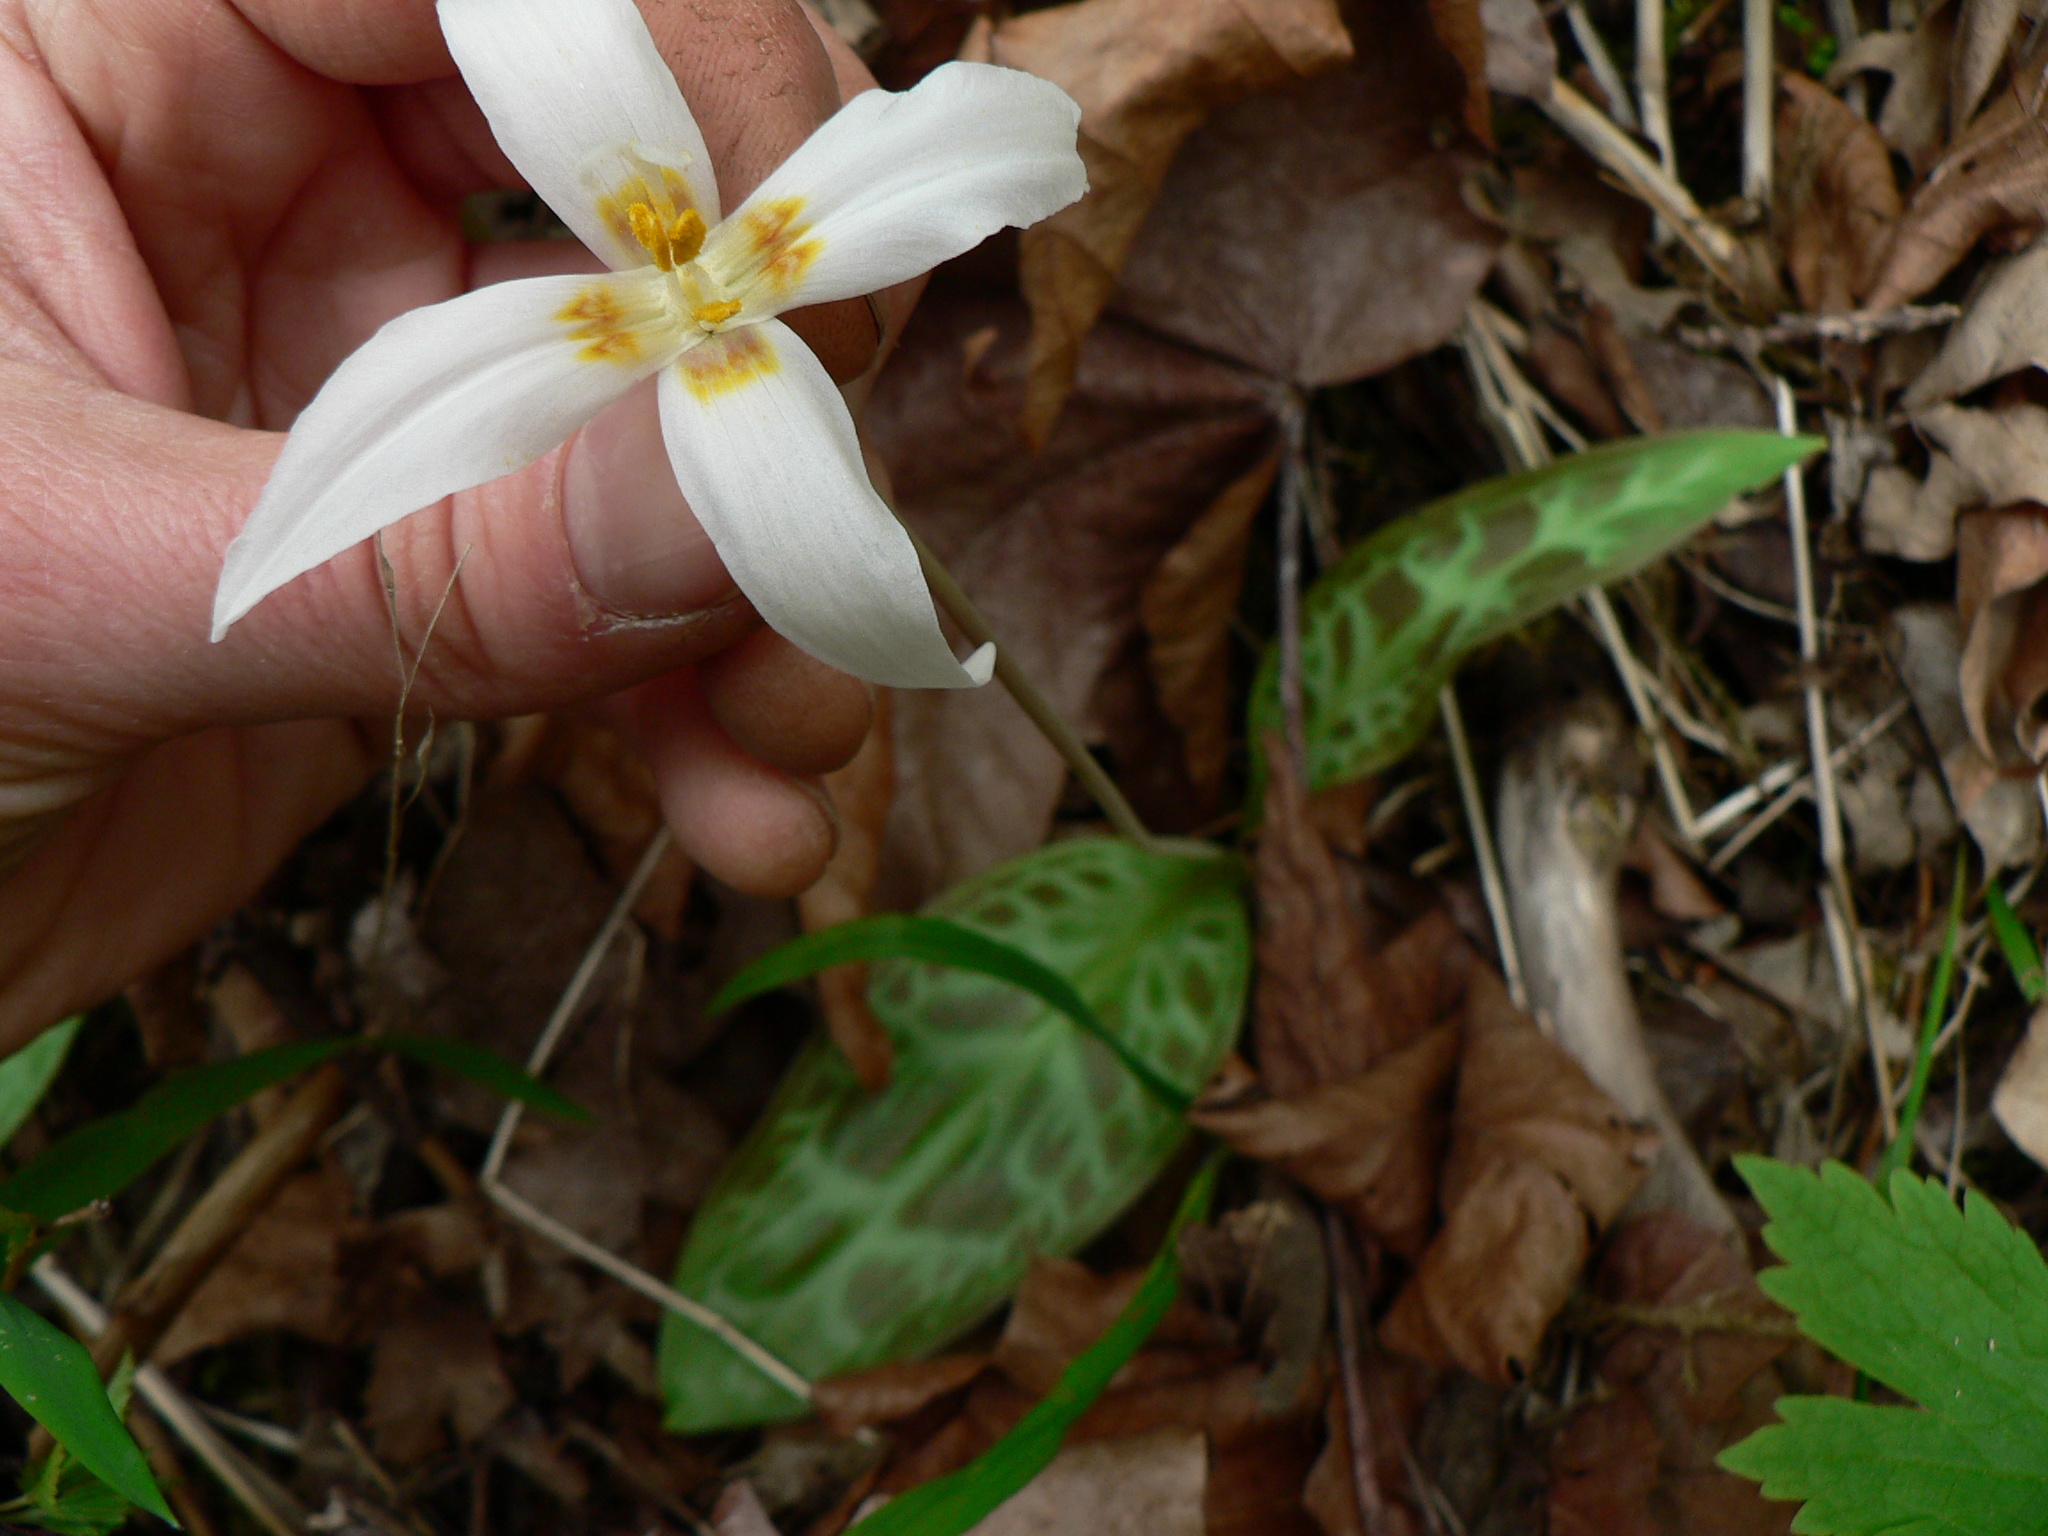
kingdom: Plantae
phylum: Tracheophyta
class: Liliopsida
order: Liliales
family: Liliaceae
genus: Erythronium
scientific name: Erythronium oregonum
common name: Giant adder's-tongue
